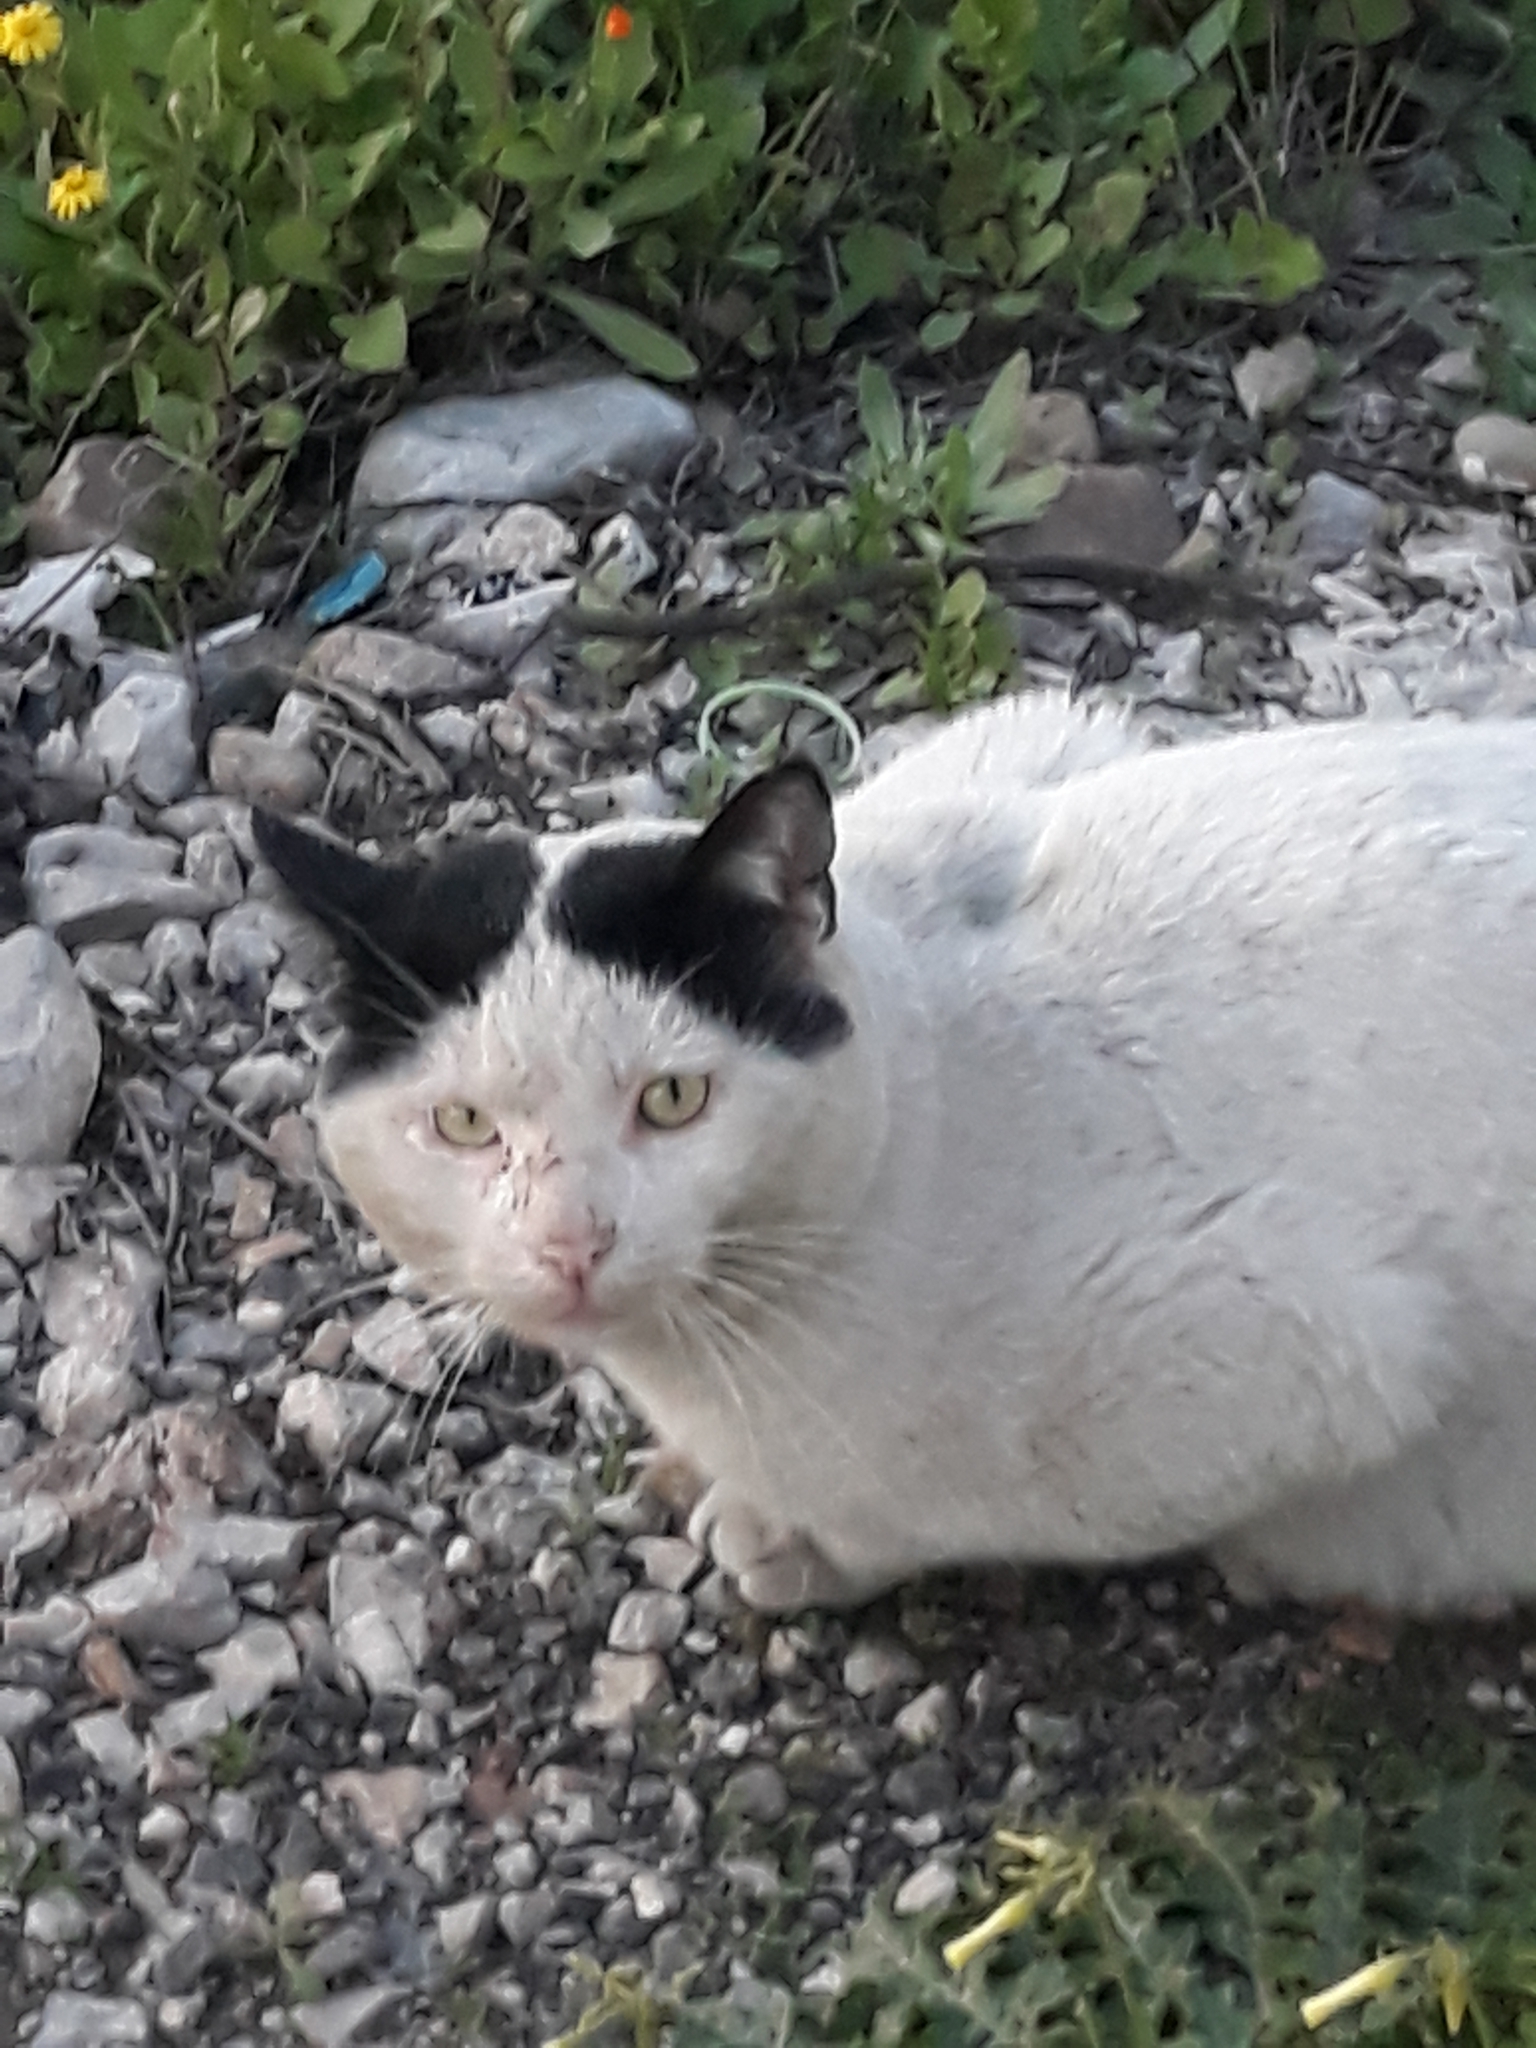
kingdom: Animalia
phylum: Chordata
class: Mammalia
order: Carnivora
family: Felidae
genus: Felis
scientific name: Felis catus
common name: Domestic cat
